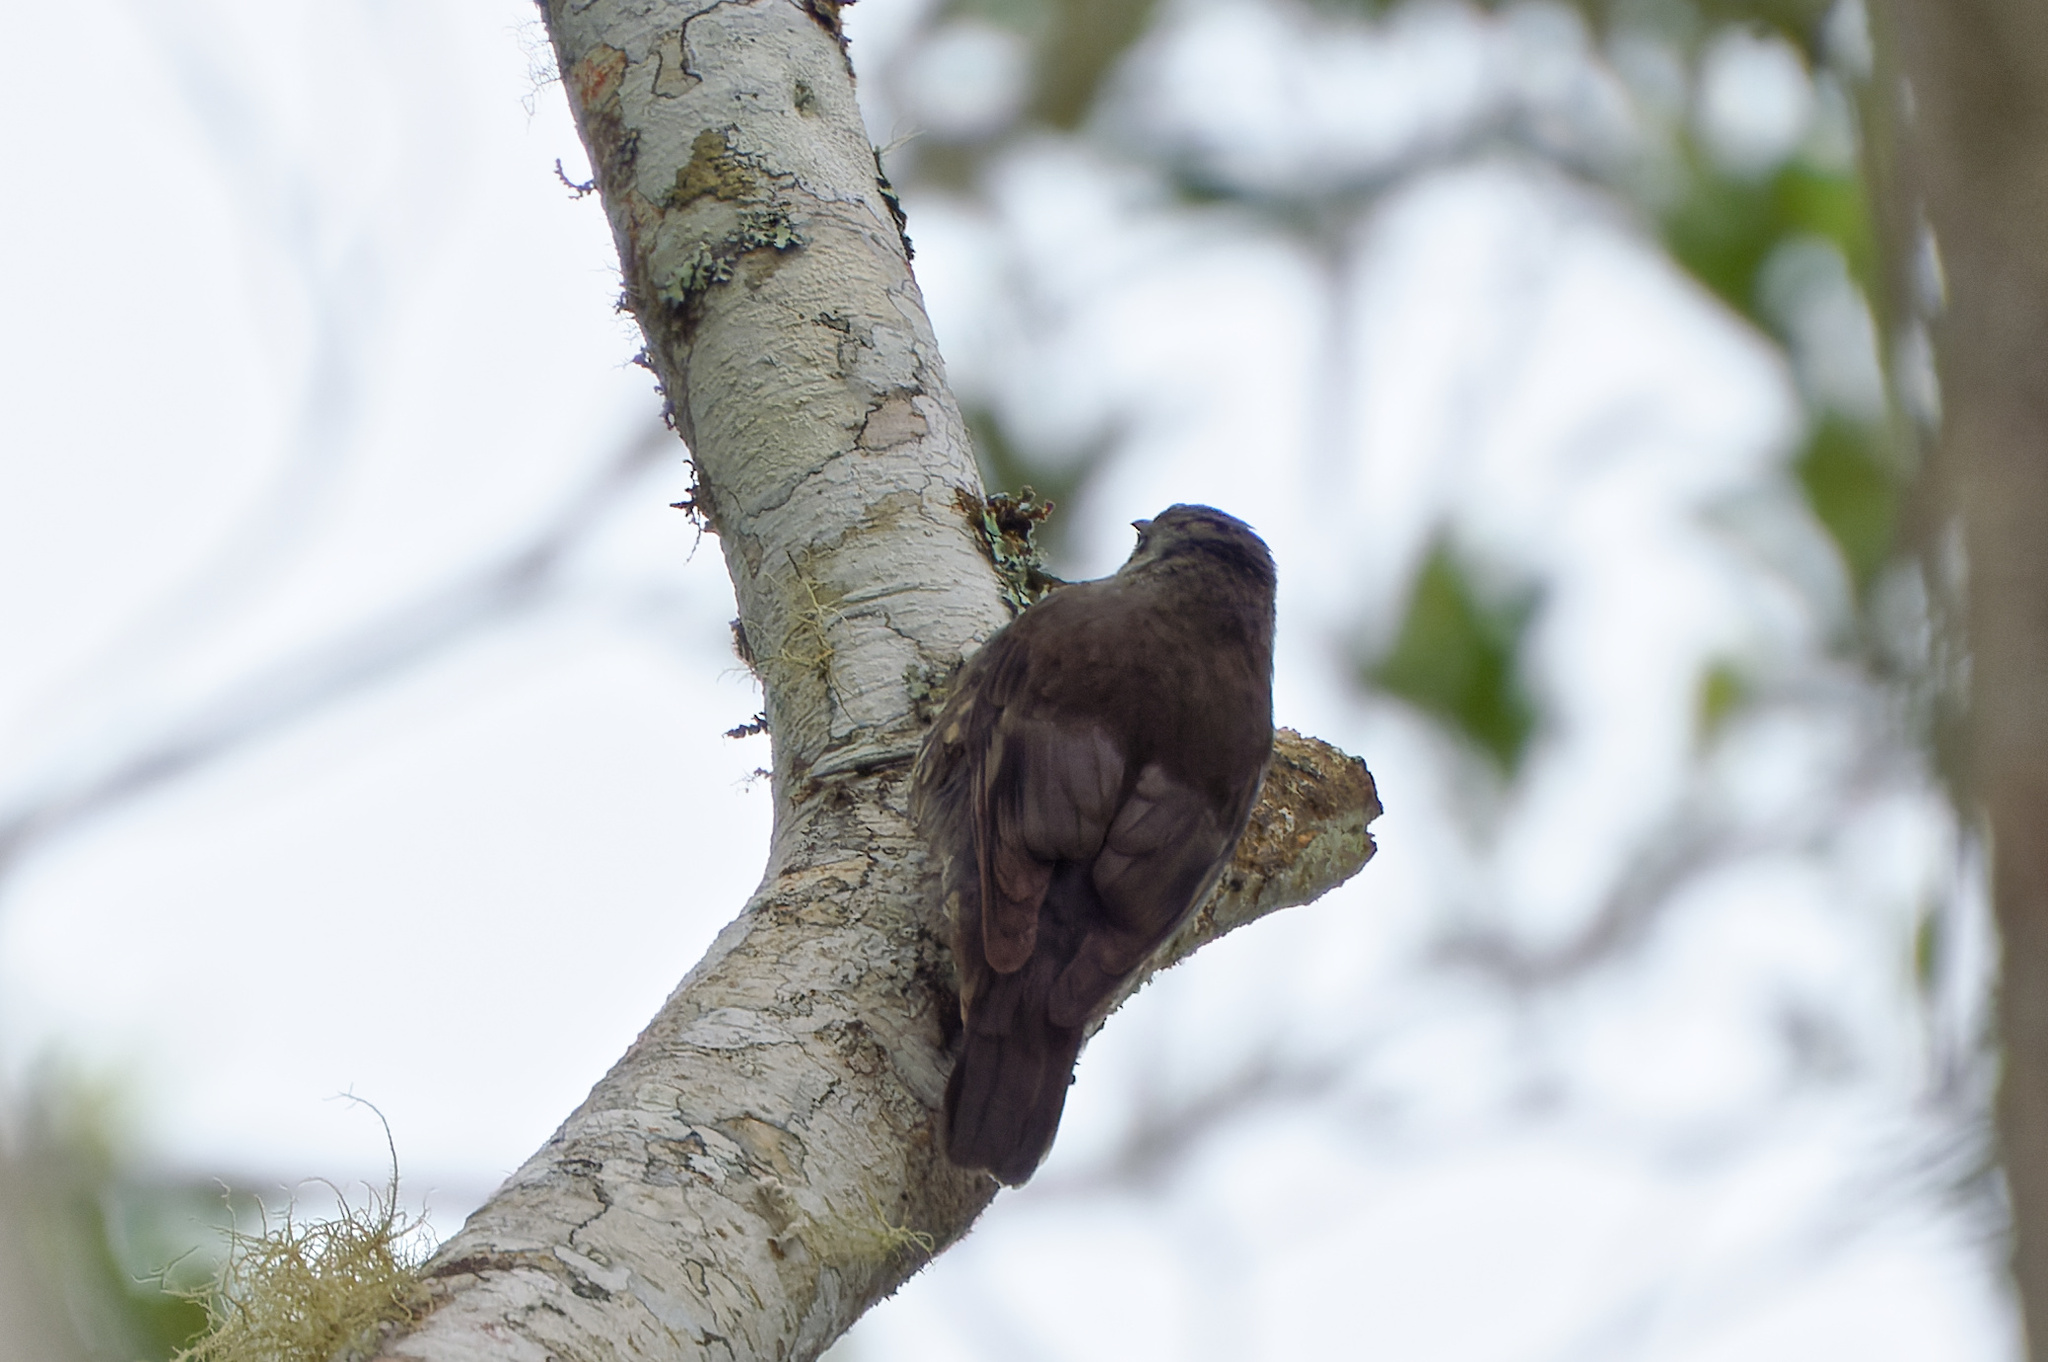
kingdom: Animalia
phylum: Chordata
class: Aves
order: Passeriformes
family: Climacteridae
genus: Cormobates
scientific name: Cormobates leucophaea
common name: White-throated treecreeper
